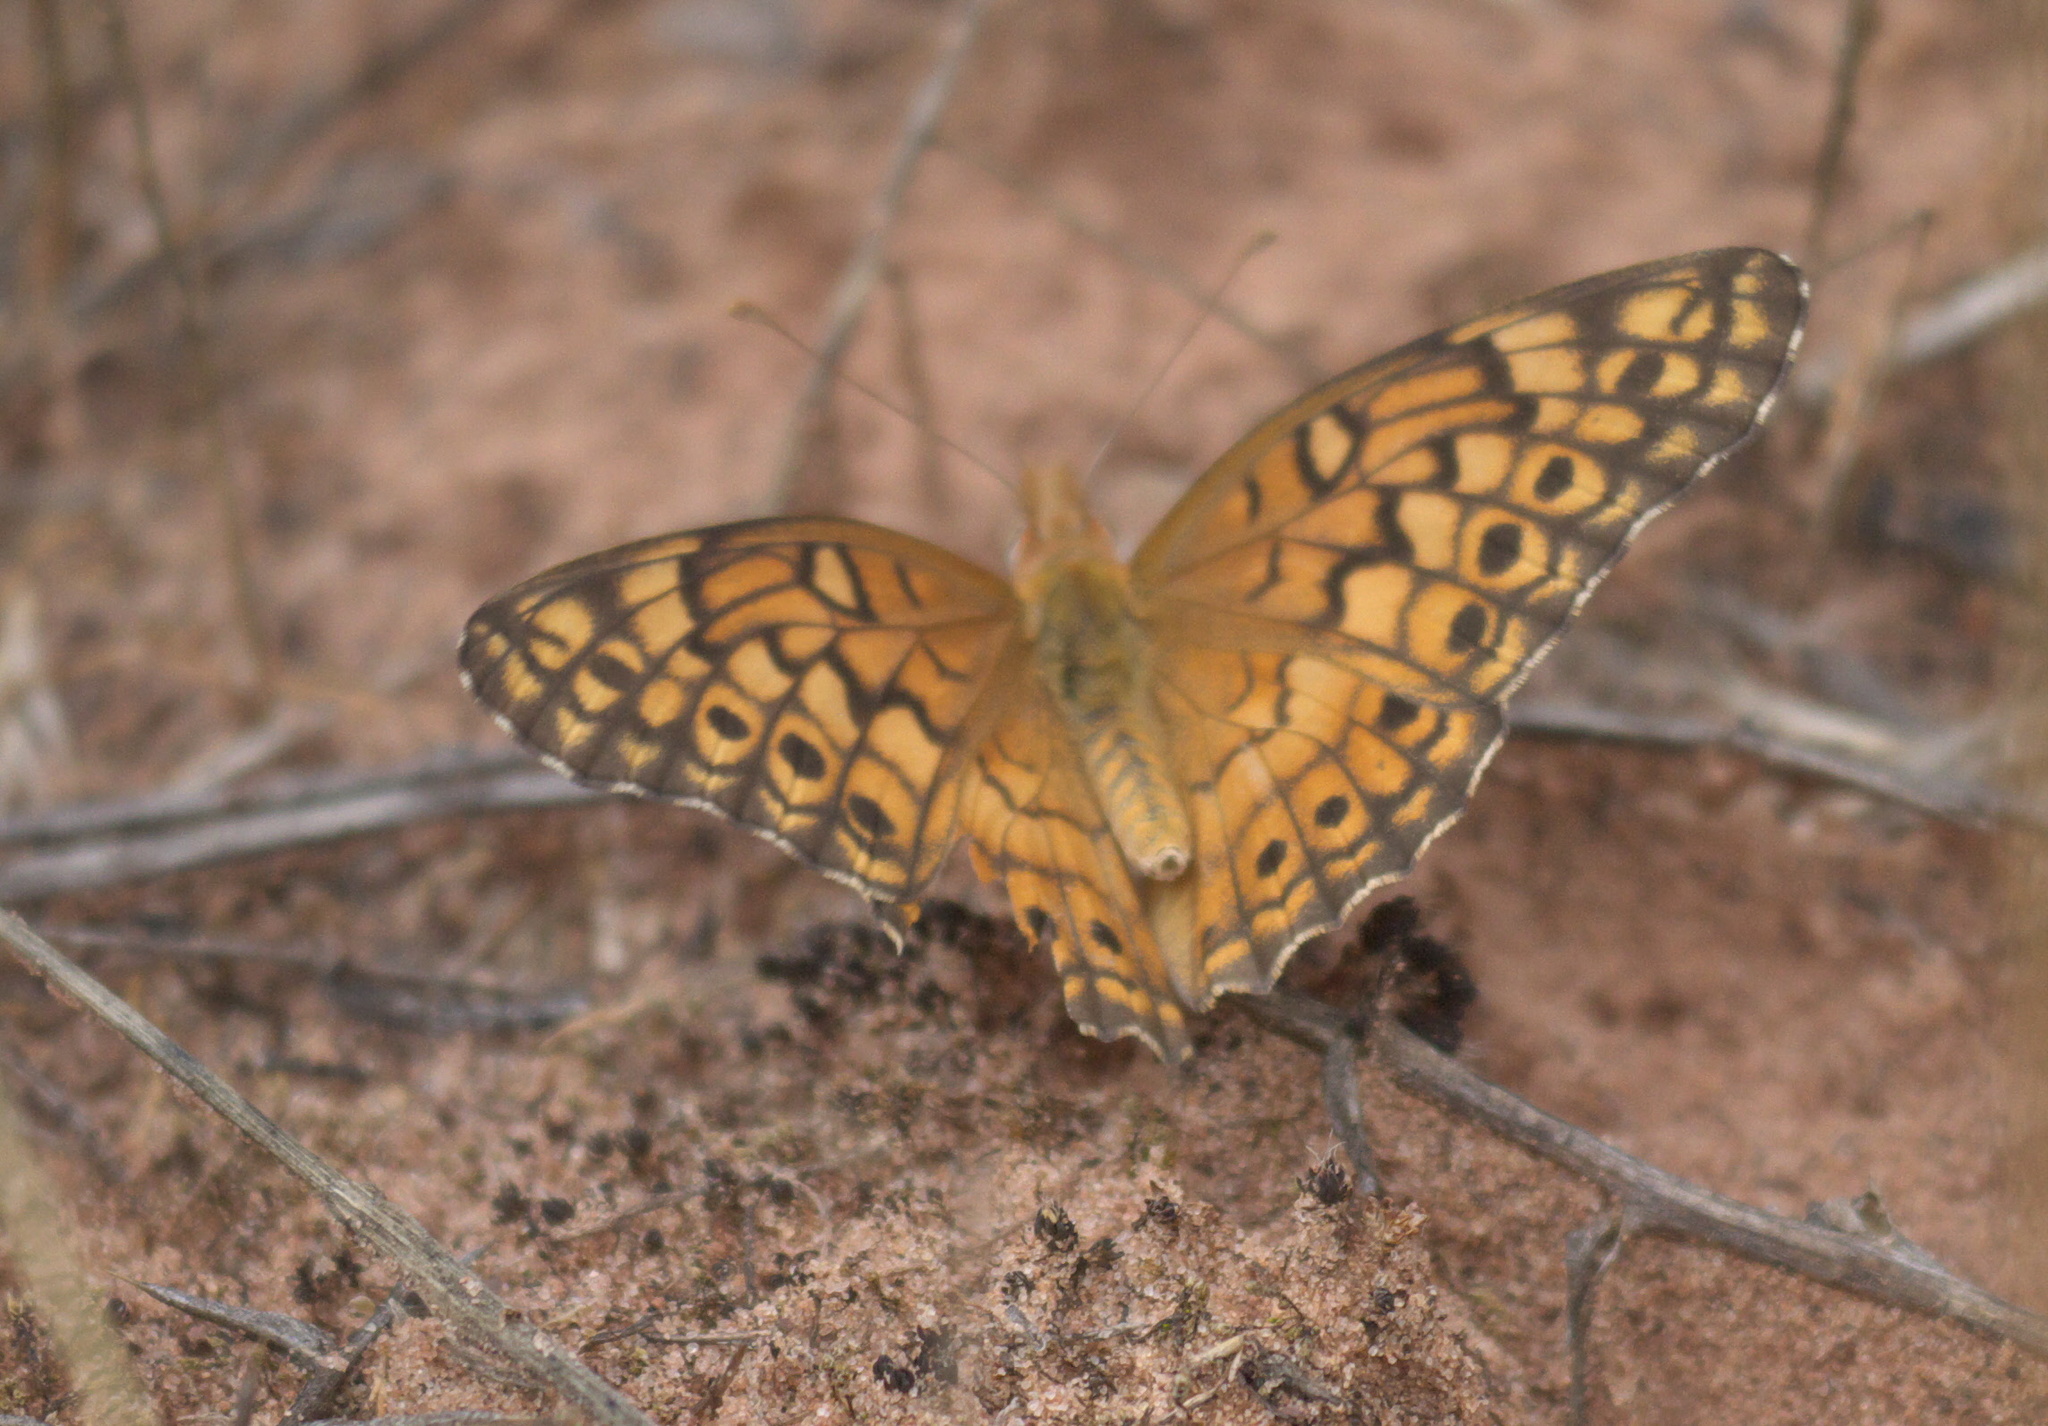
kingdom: Animalia
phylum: Arthropoda
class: Insecta
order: Lepidoptera
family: Nymphalidae
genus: Euptoieta
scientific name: Euptoieta claudia
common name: Variegated fritillary
